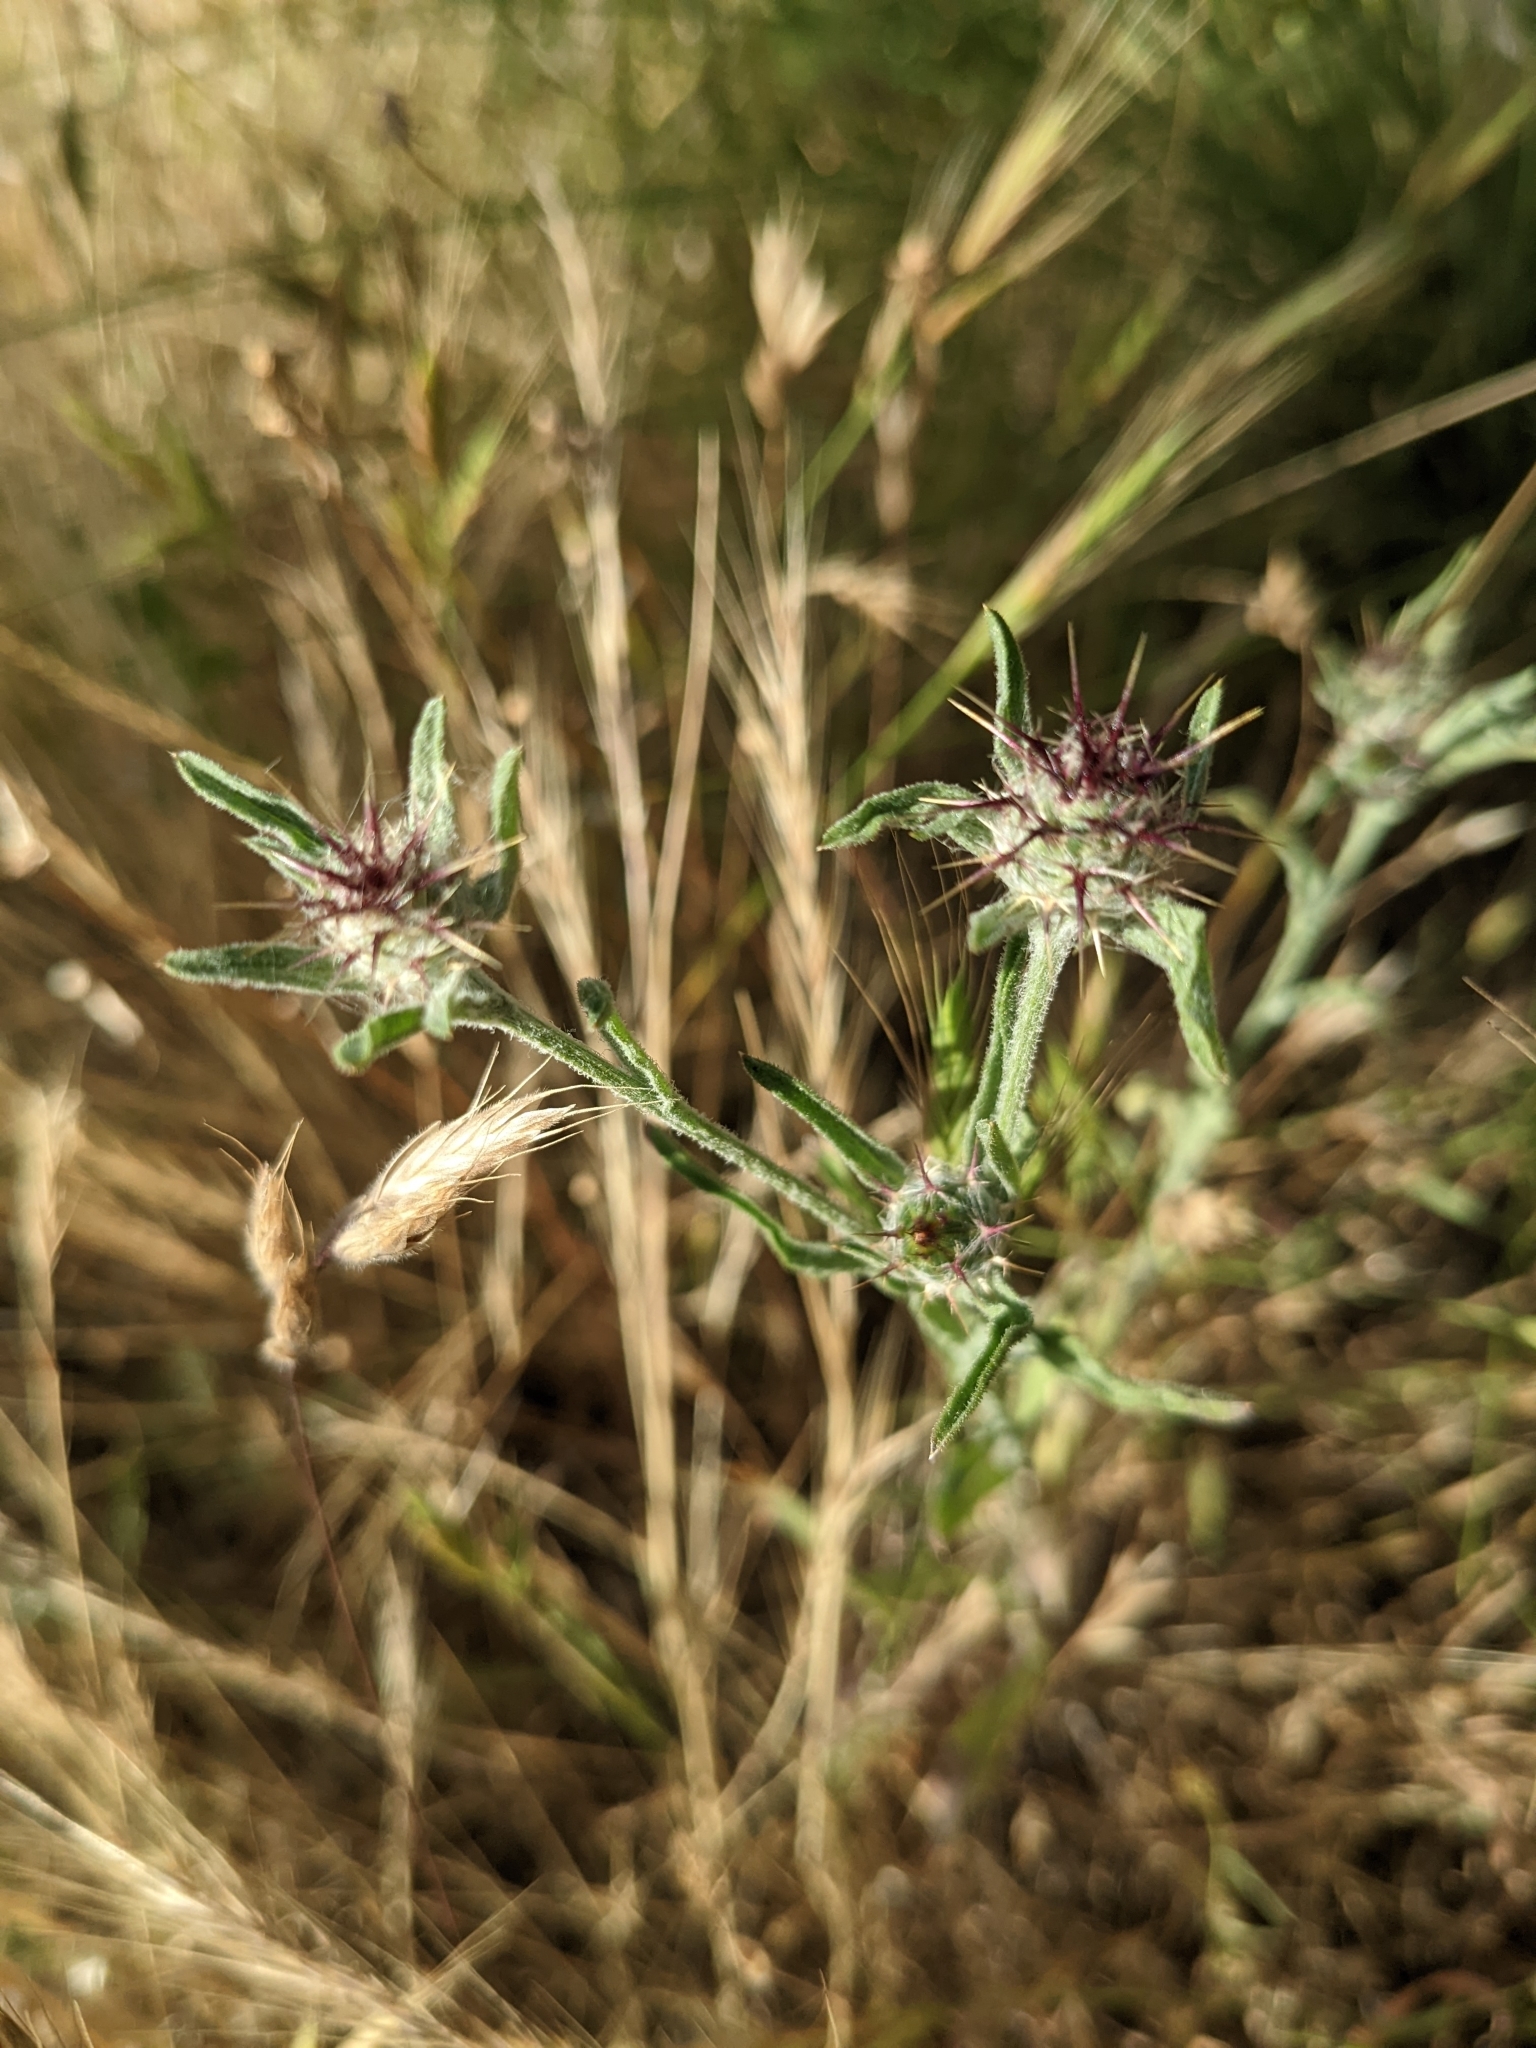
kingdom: Plantae
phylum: Tracheophyta
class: Magnoliopsida
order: Asterales
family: Asteraceae
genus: Centaurea
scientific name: Centaurea melitensis
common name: Maltese star-thistle
